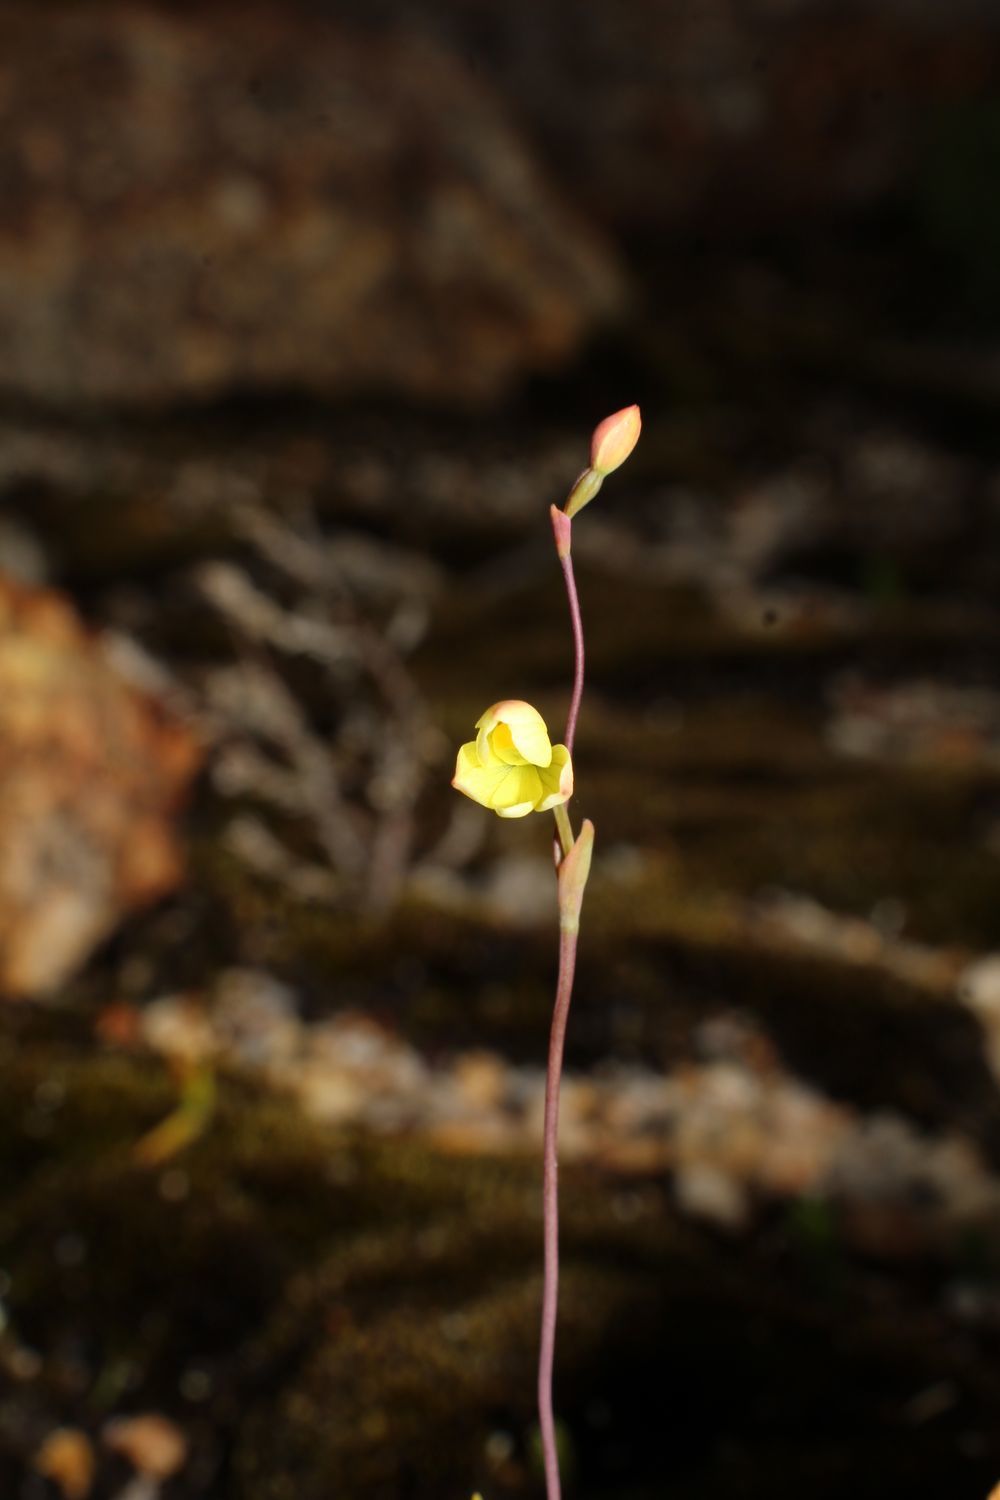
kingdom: Plantae
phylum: Tracheophyta
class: Liliopsida
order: Asparagales
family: Orchidaceae
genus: Thelymitra
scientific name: Thelymitra flexuosa
